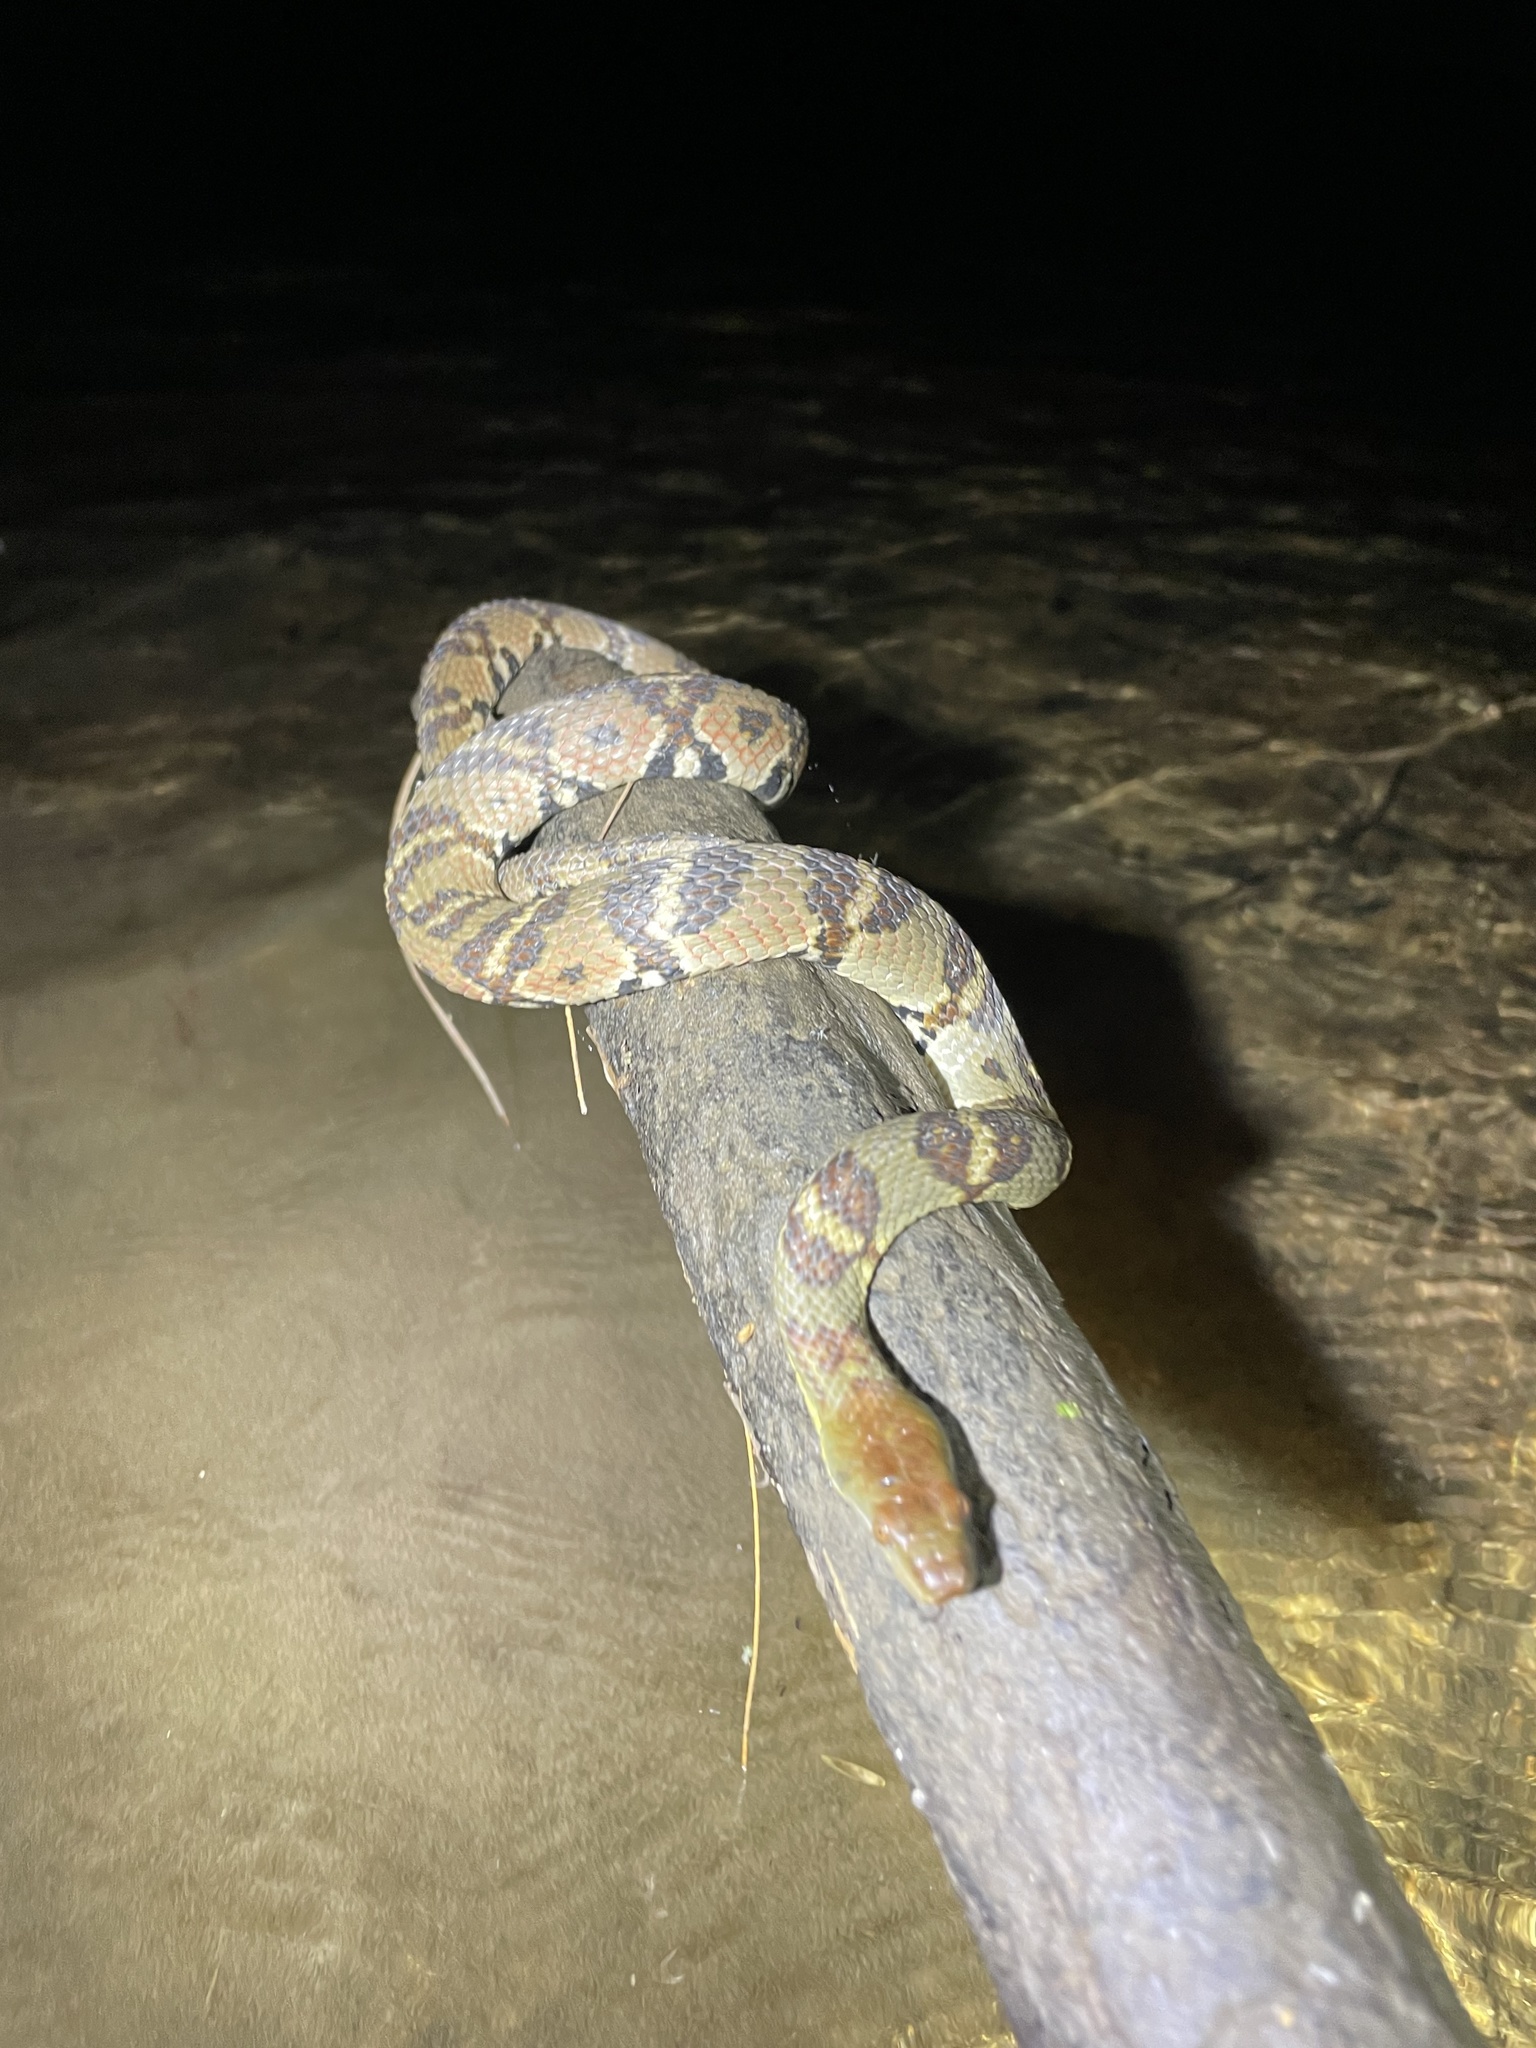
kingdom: Animalia
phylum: Chordata
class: Squamata
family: Colubridae
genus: Trimerodytes
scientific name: Trimerodytes aequifasciatus
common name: Asiatic water snake
